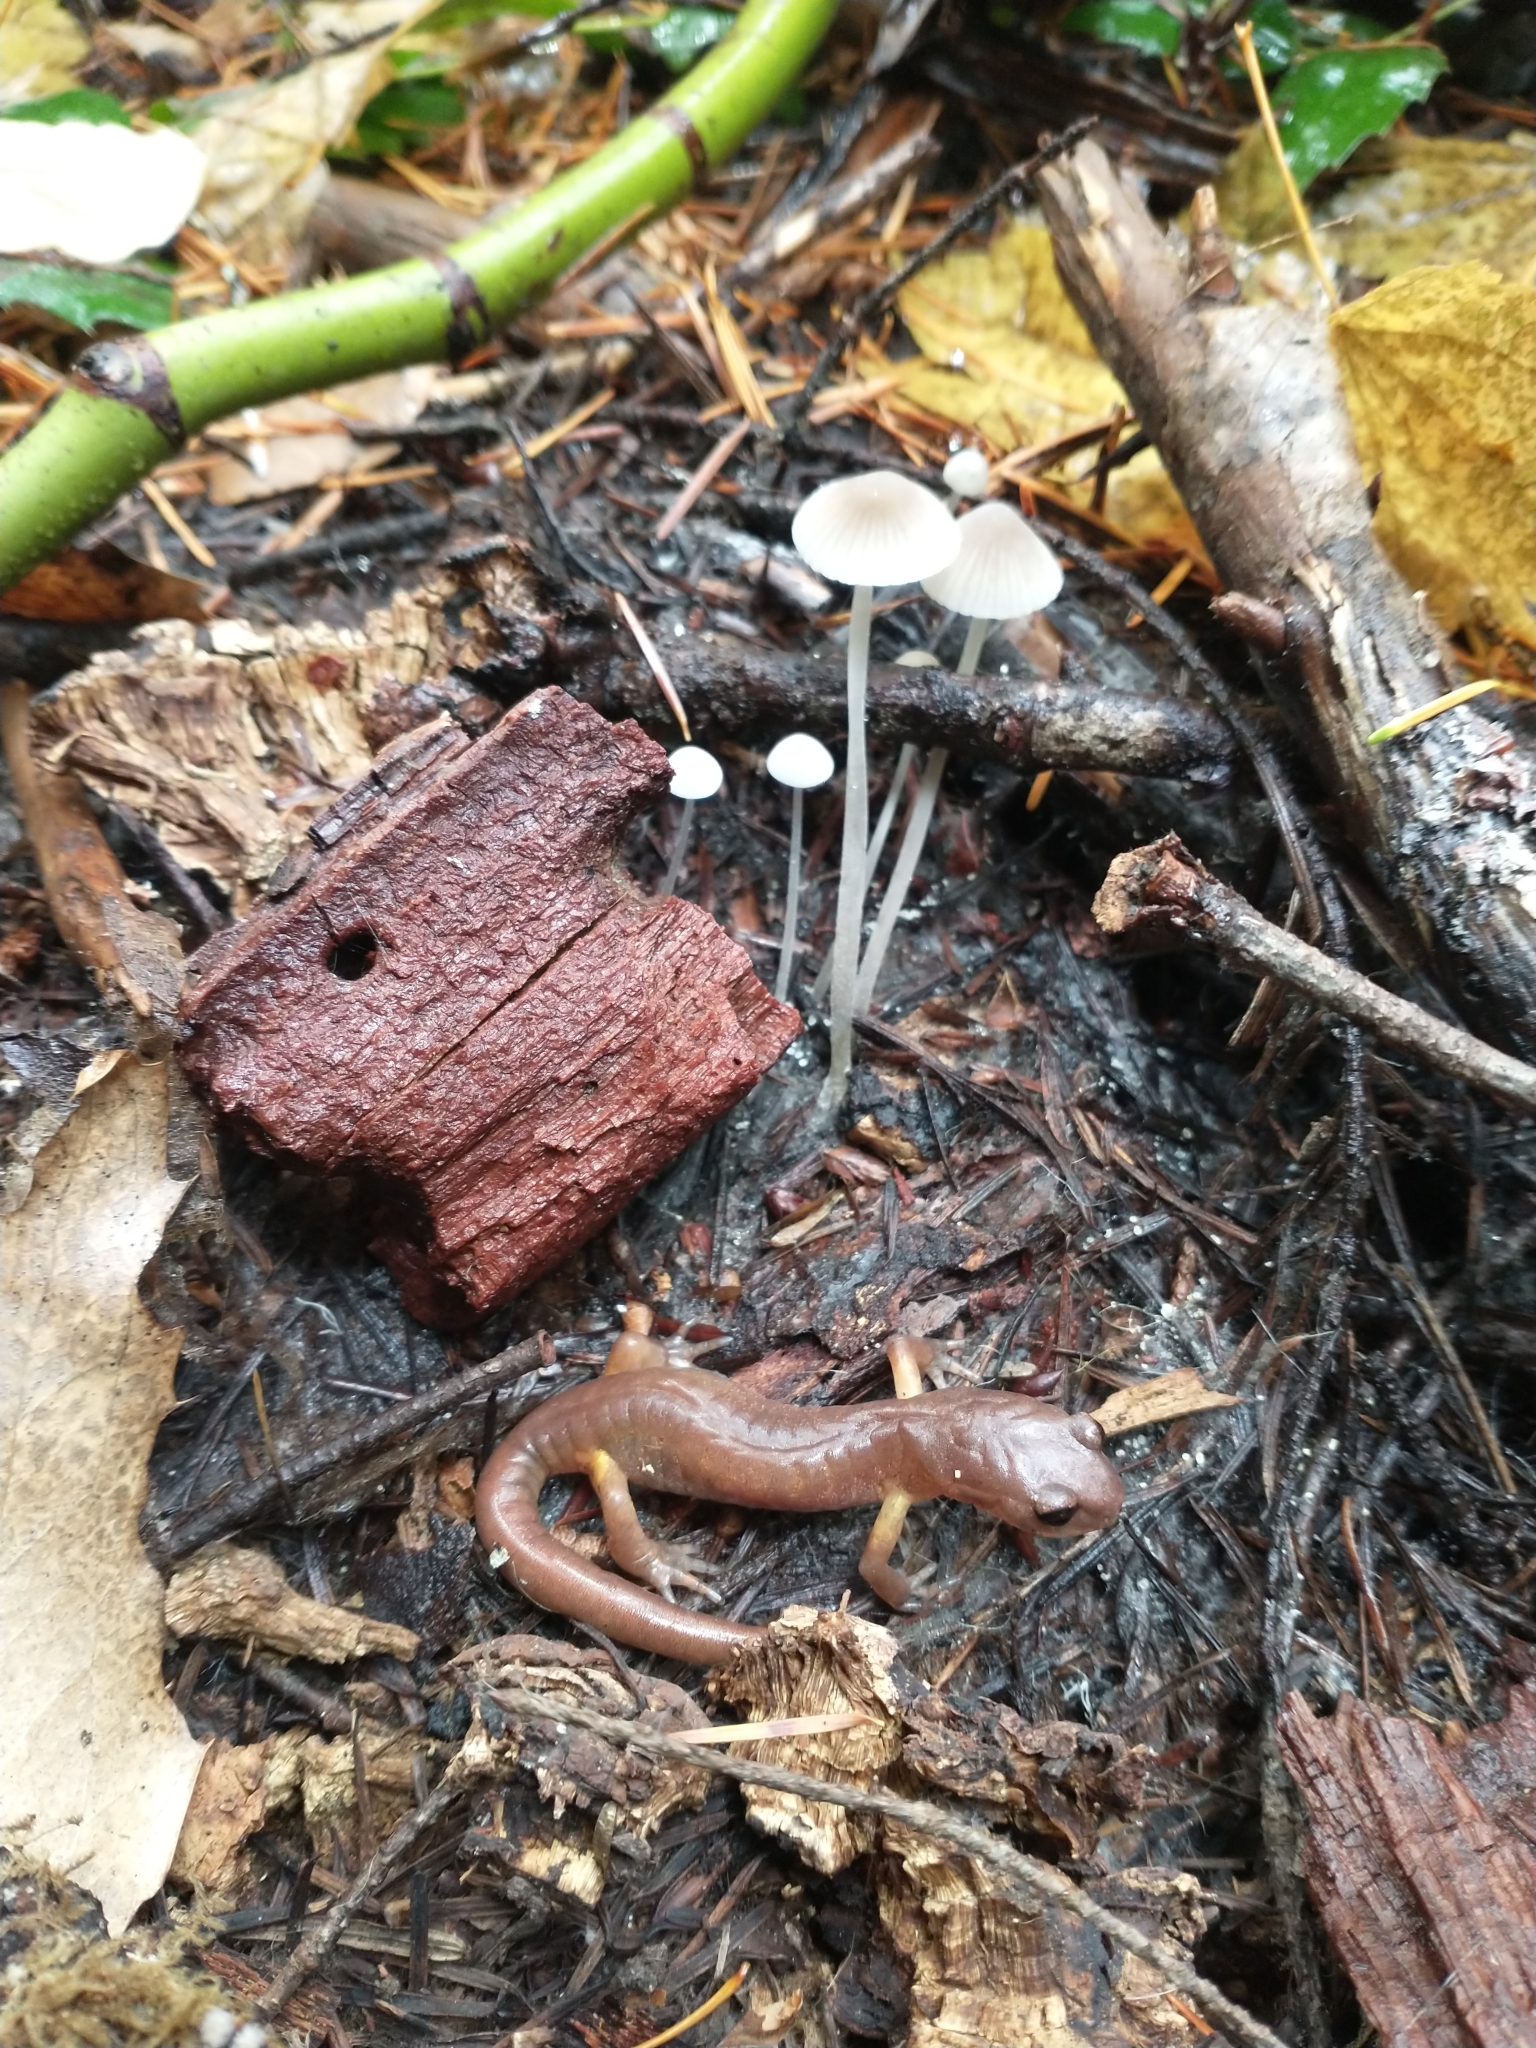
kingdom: Animalia
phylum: Chordata
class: Amphibia
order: Caudata
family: Plethodontidae
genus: Ensatina
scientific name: Ensatina eschscholtzii
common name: Ensatina
